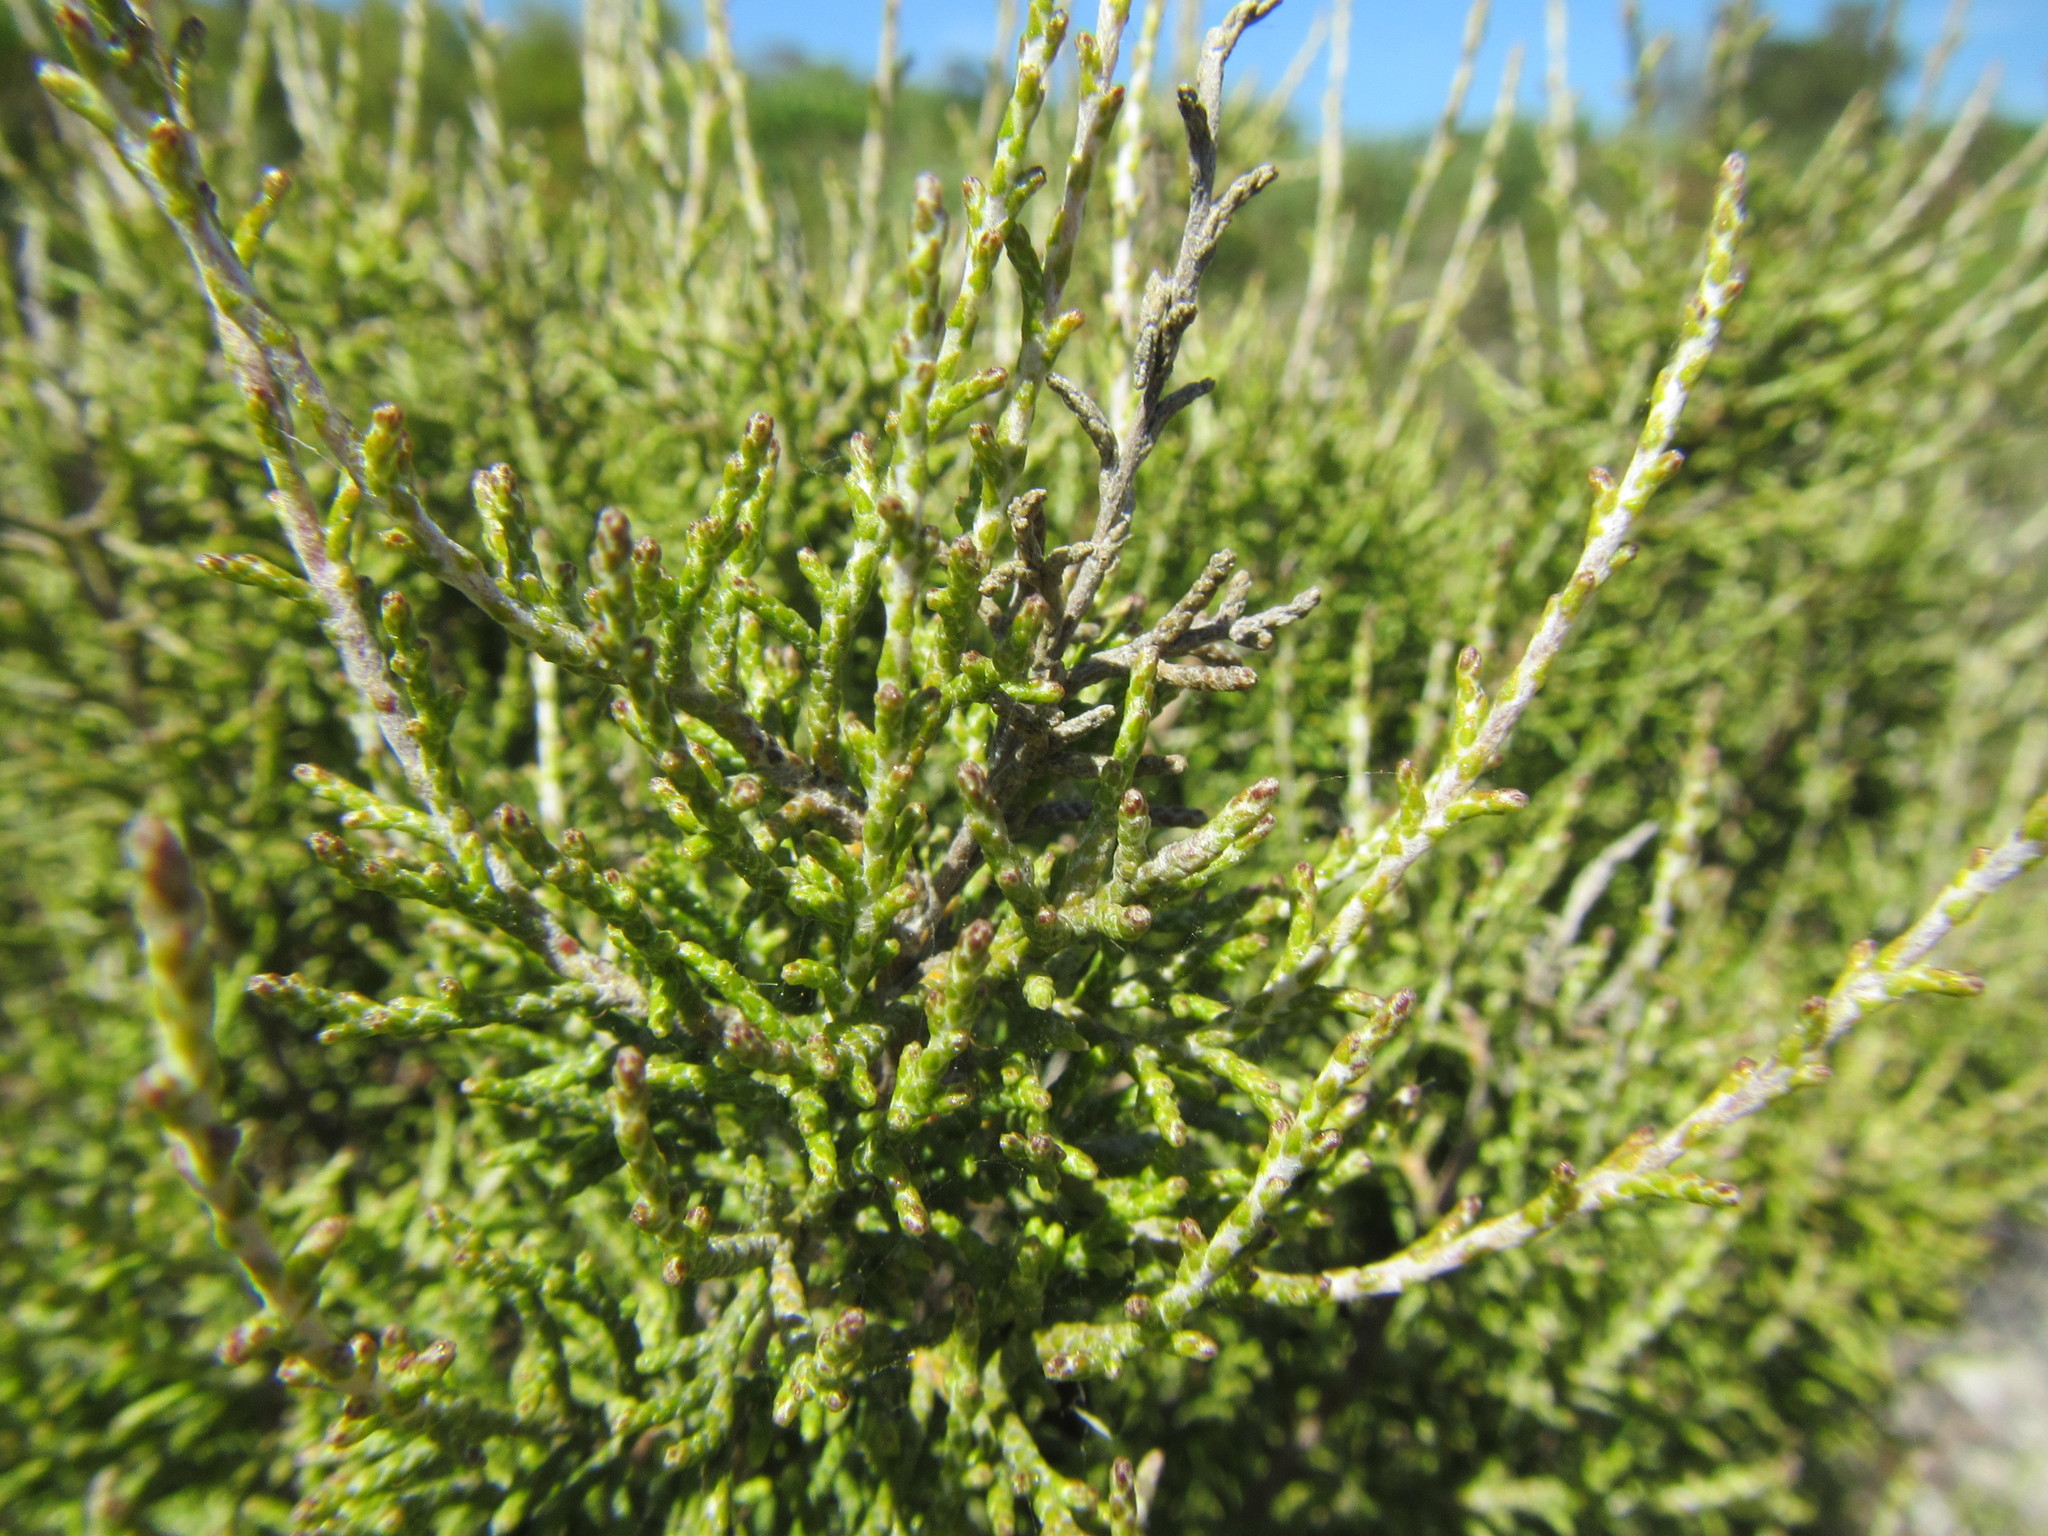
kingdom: Plantae
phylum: Tracheophyta
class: Magnoliopsida
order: Asterales
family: Asteraceae
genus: Dicerothamnus
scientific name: Dicerothamnus rhinocerotis
